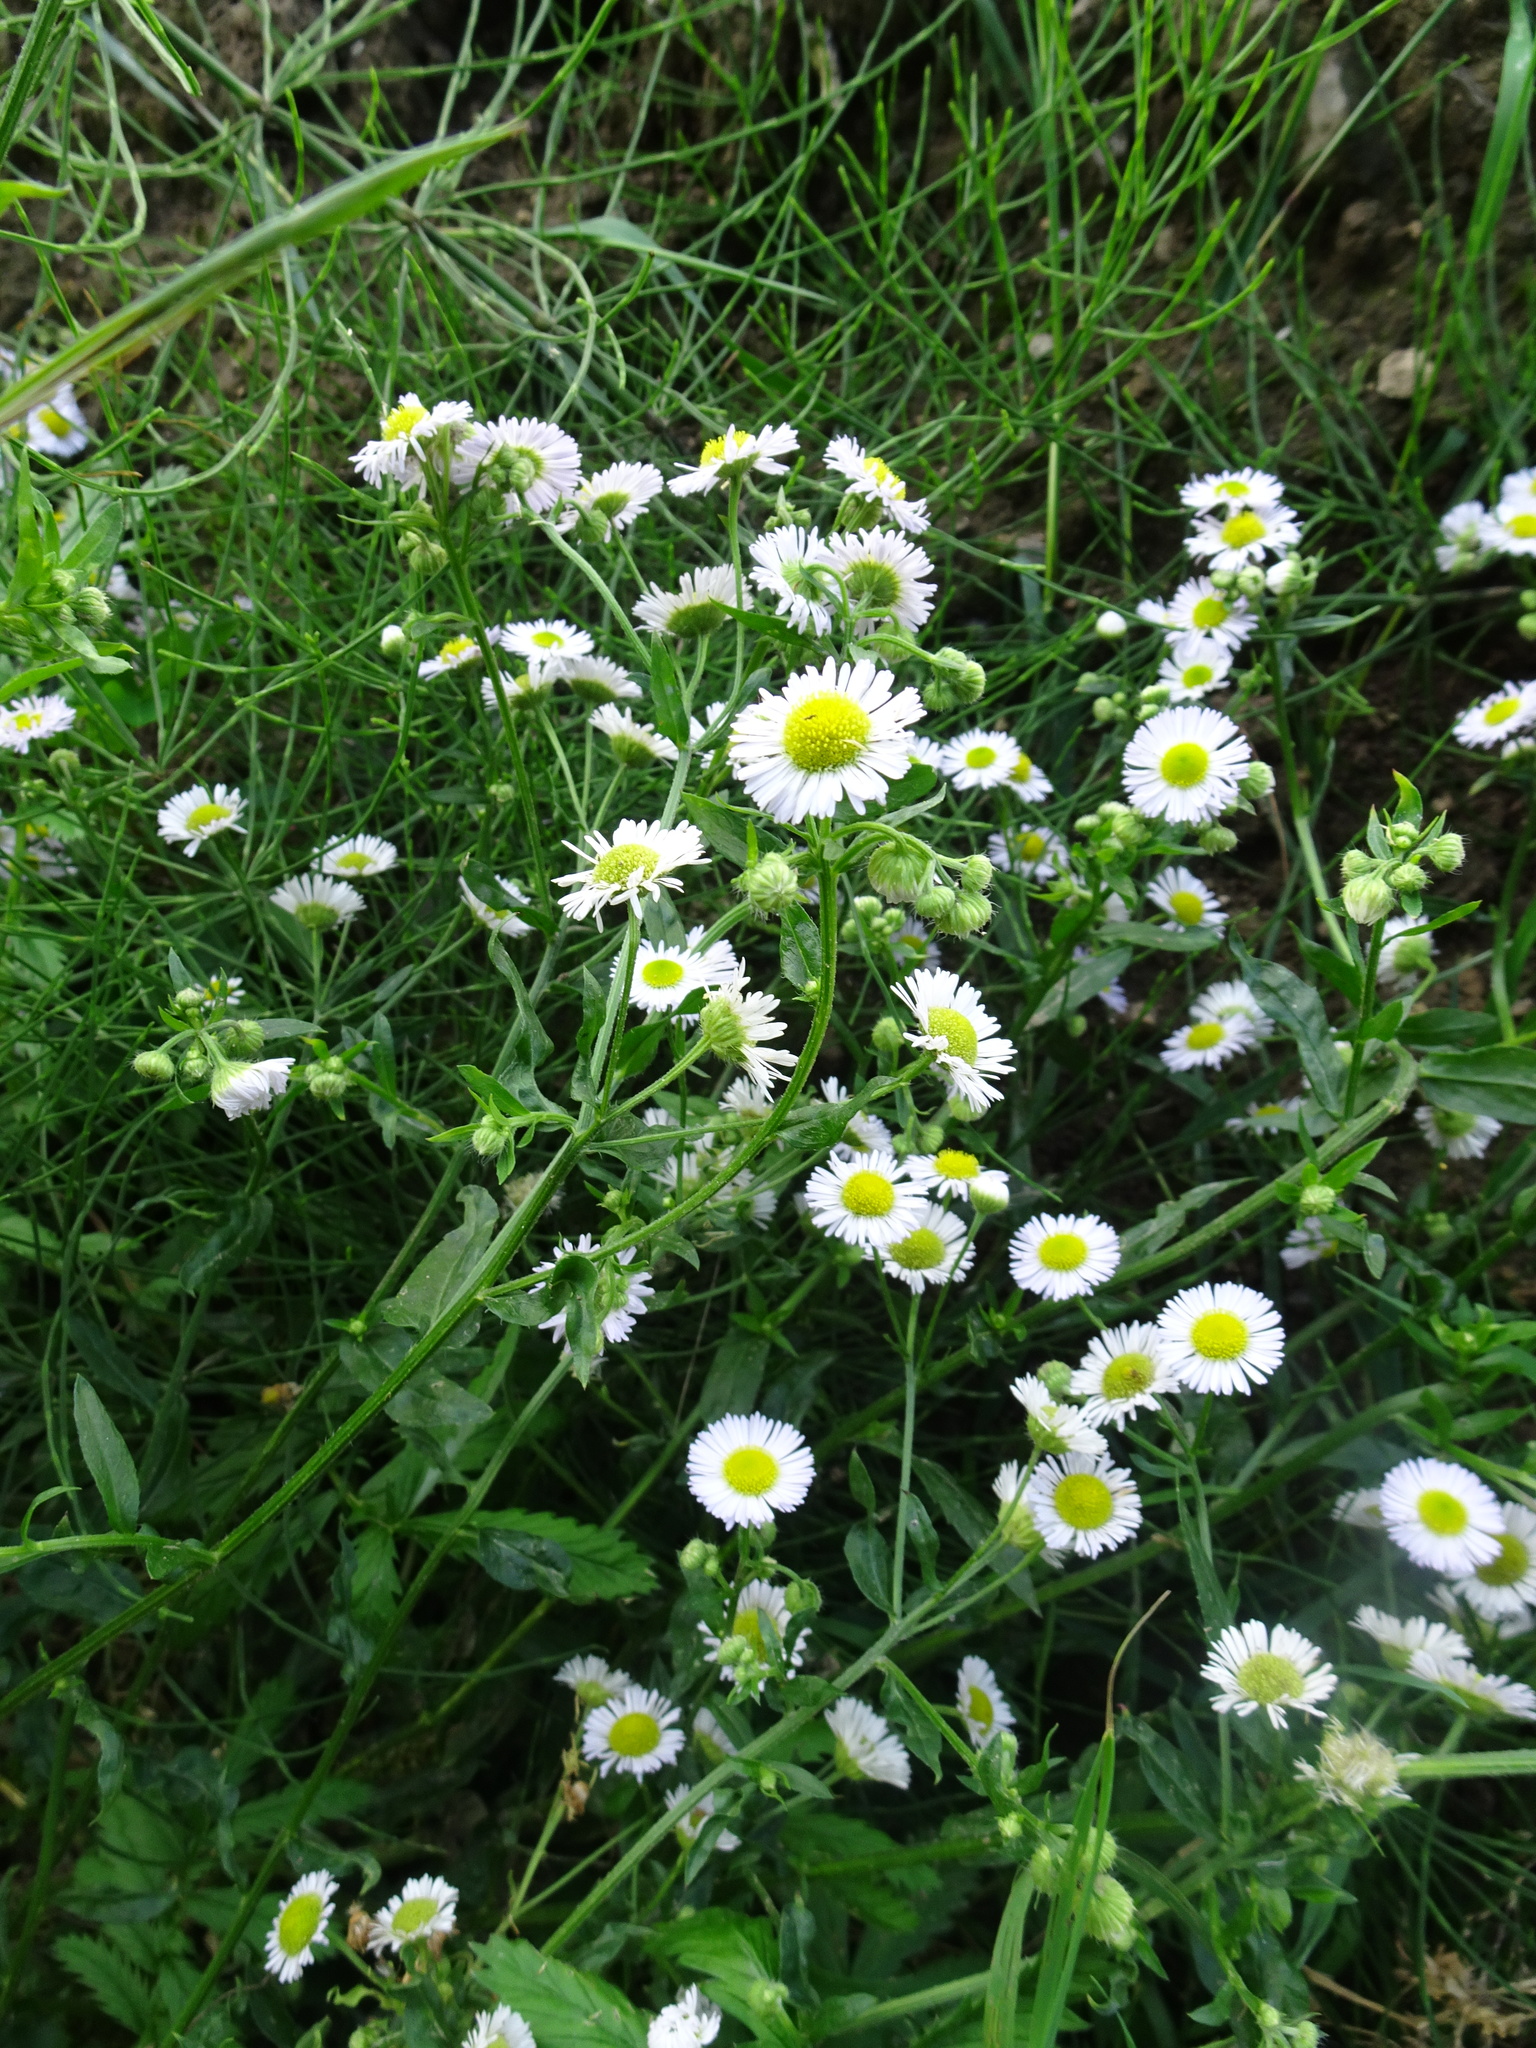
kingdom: Plantae
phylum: Tracheophyta
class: Magnoliopsida
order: Asterales
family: Asteraceae
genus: Erigeron
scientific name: Erigeron annuus
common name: Tall fleabane
